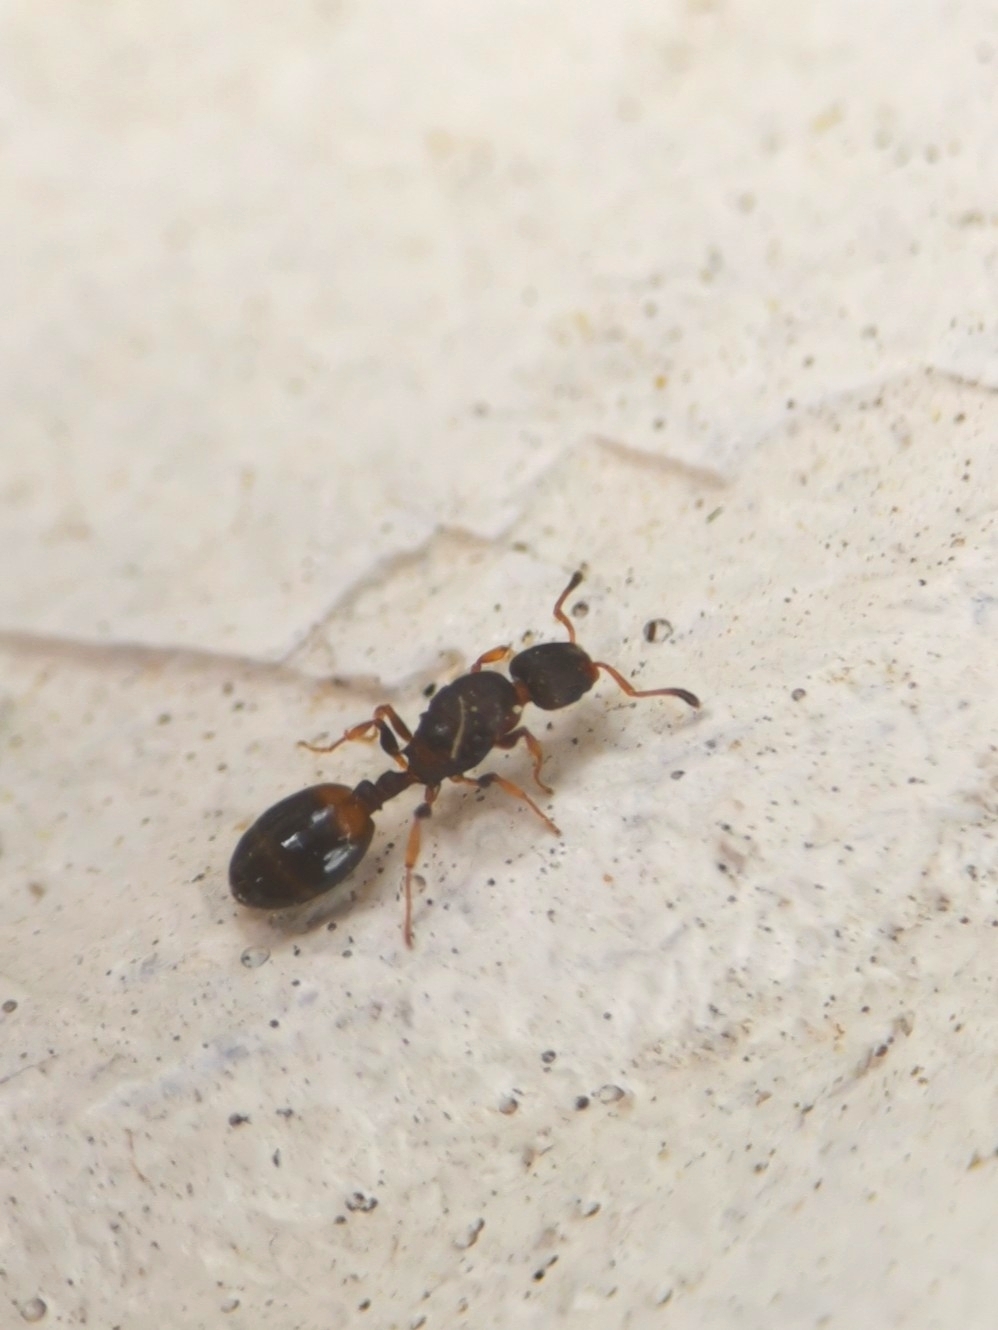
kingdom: Animalia
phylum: Arthropoda
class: Insecta
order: Hymenoptera
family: Formicidae
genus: Leptothorax
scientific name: Leptothorax affinis
